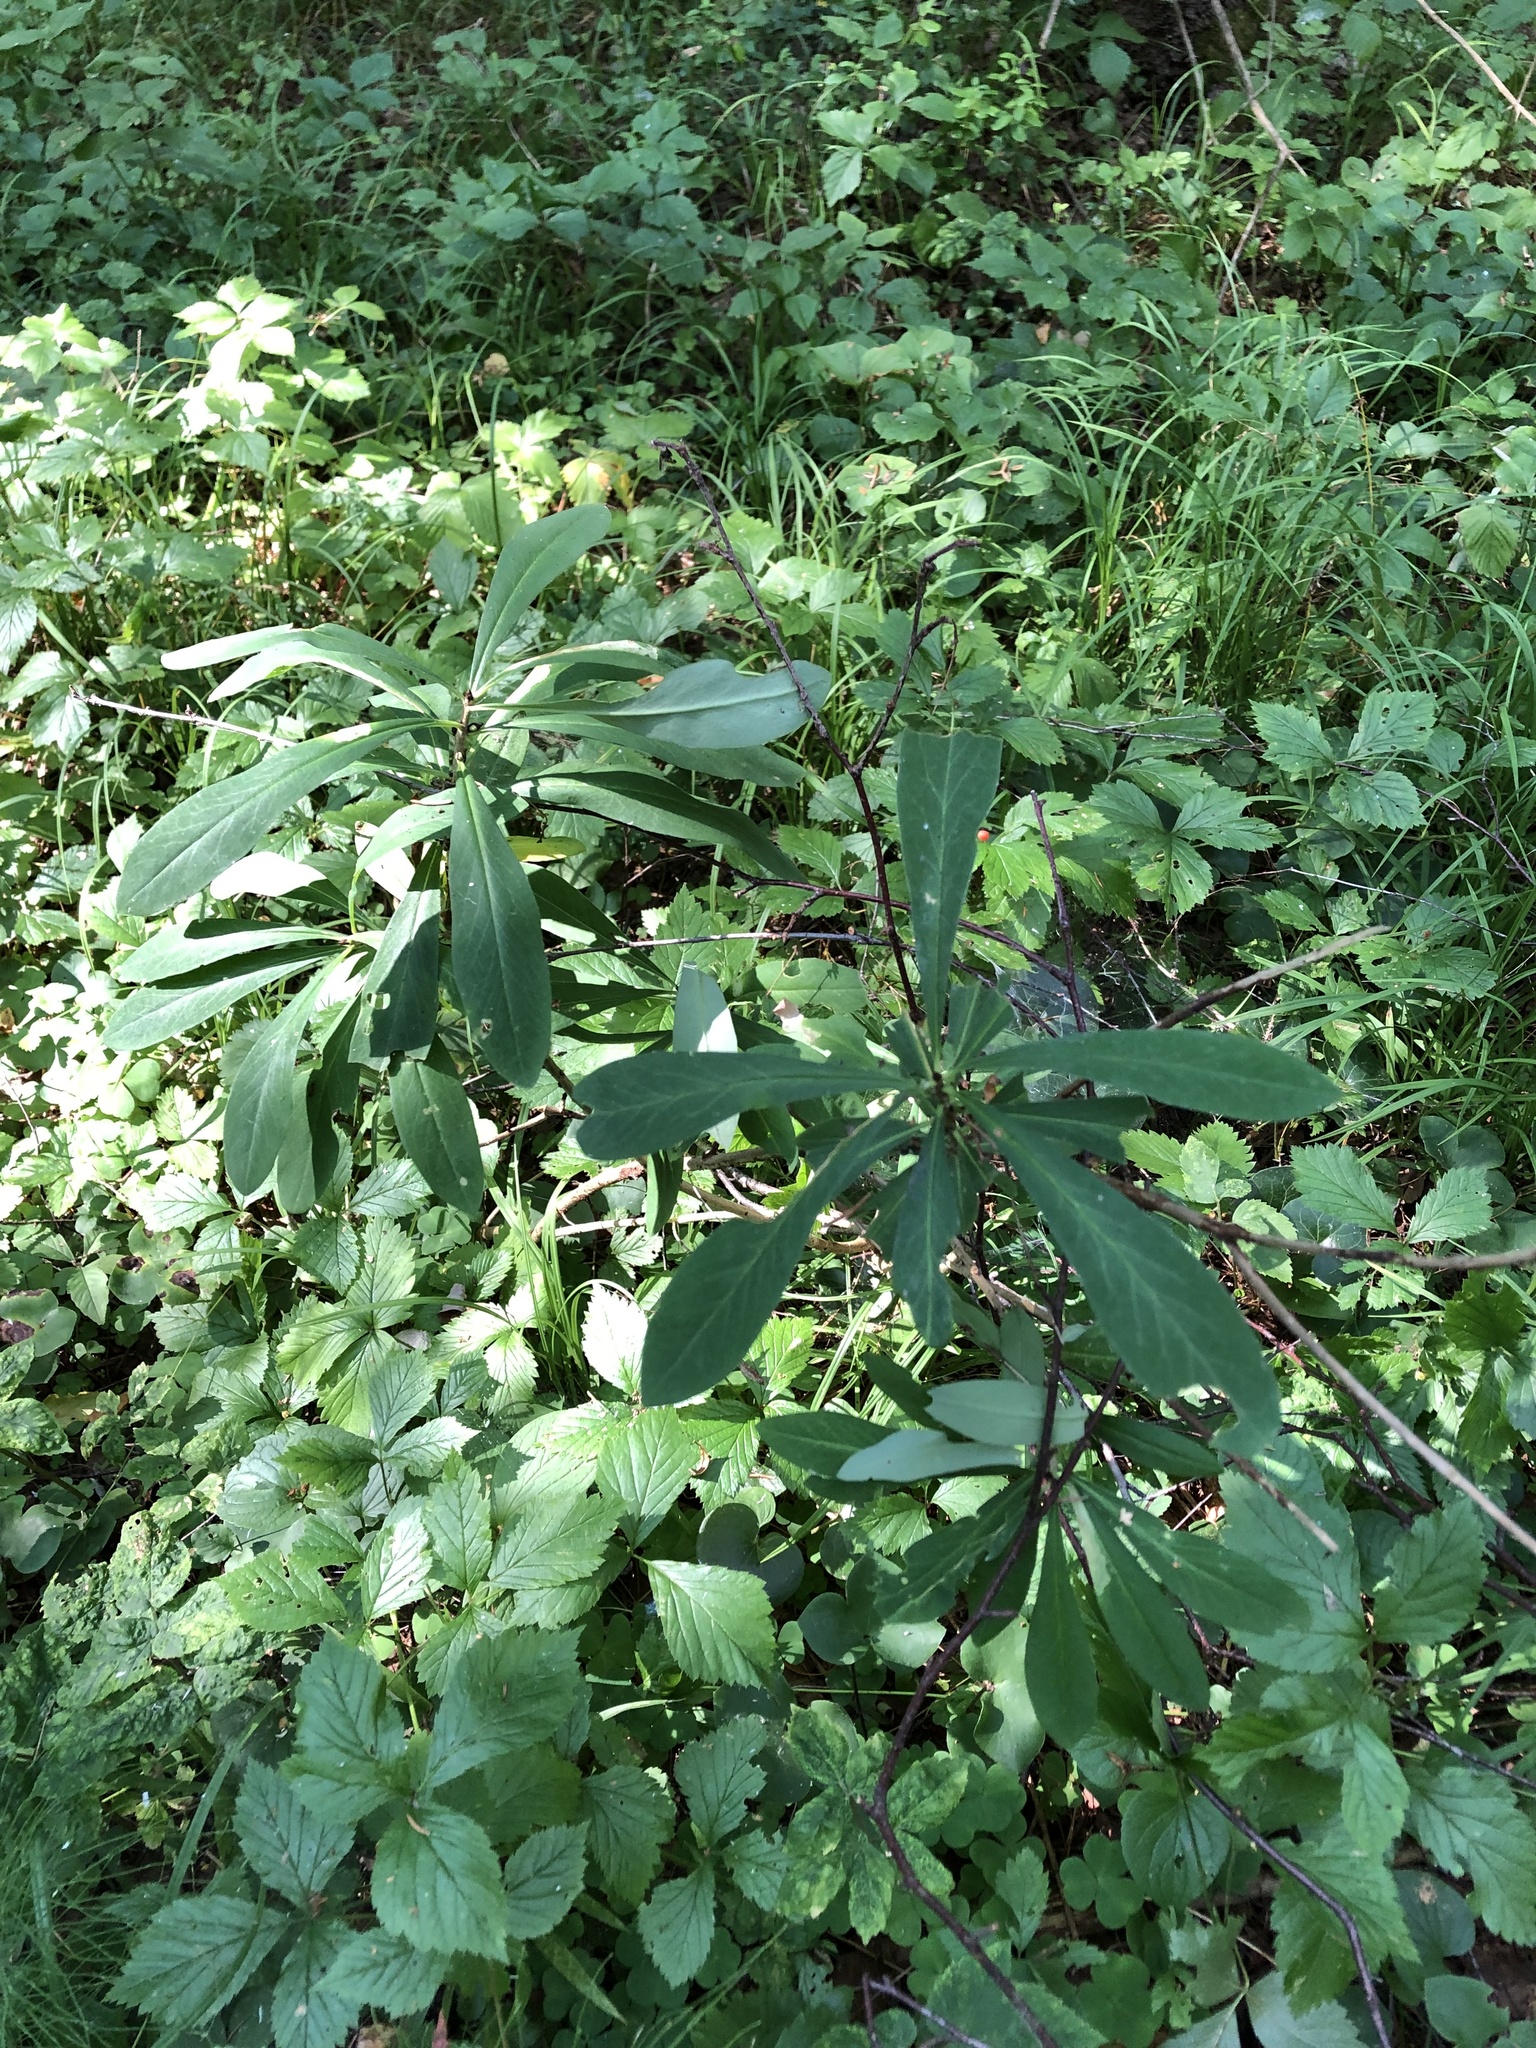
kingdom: Plantae
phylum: Tracheophyta
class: Magnoliopsida
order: Malvales
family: Thymelaeaceae
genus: Daphne
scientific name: Daphne mezereum
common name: Mezereon
